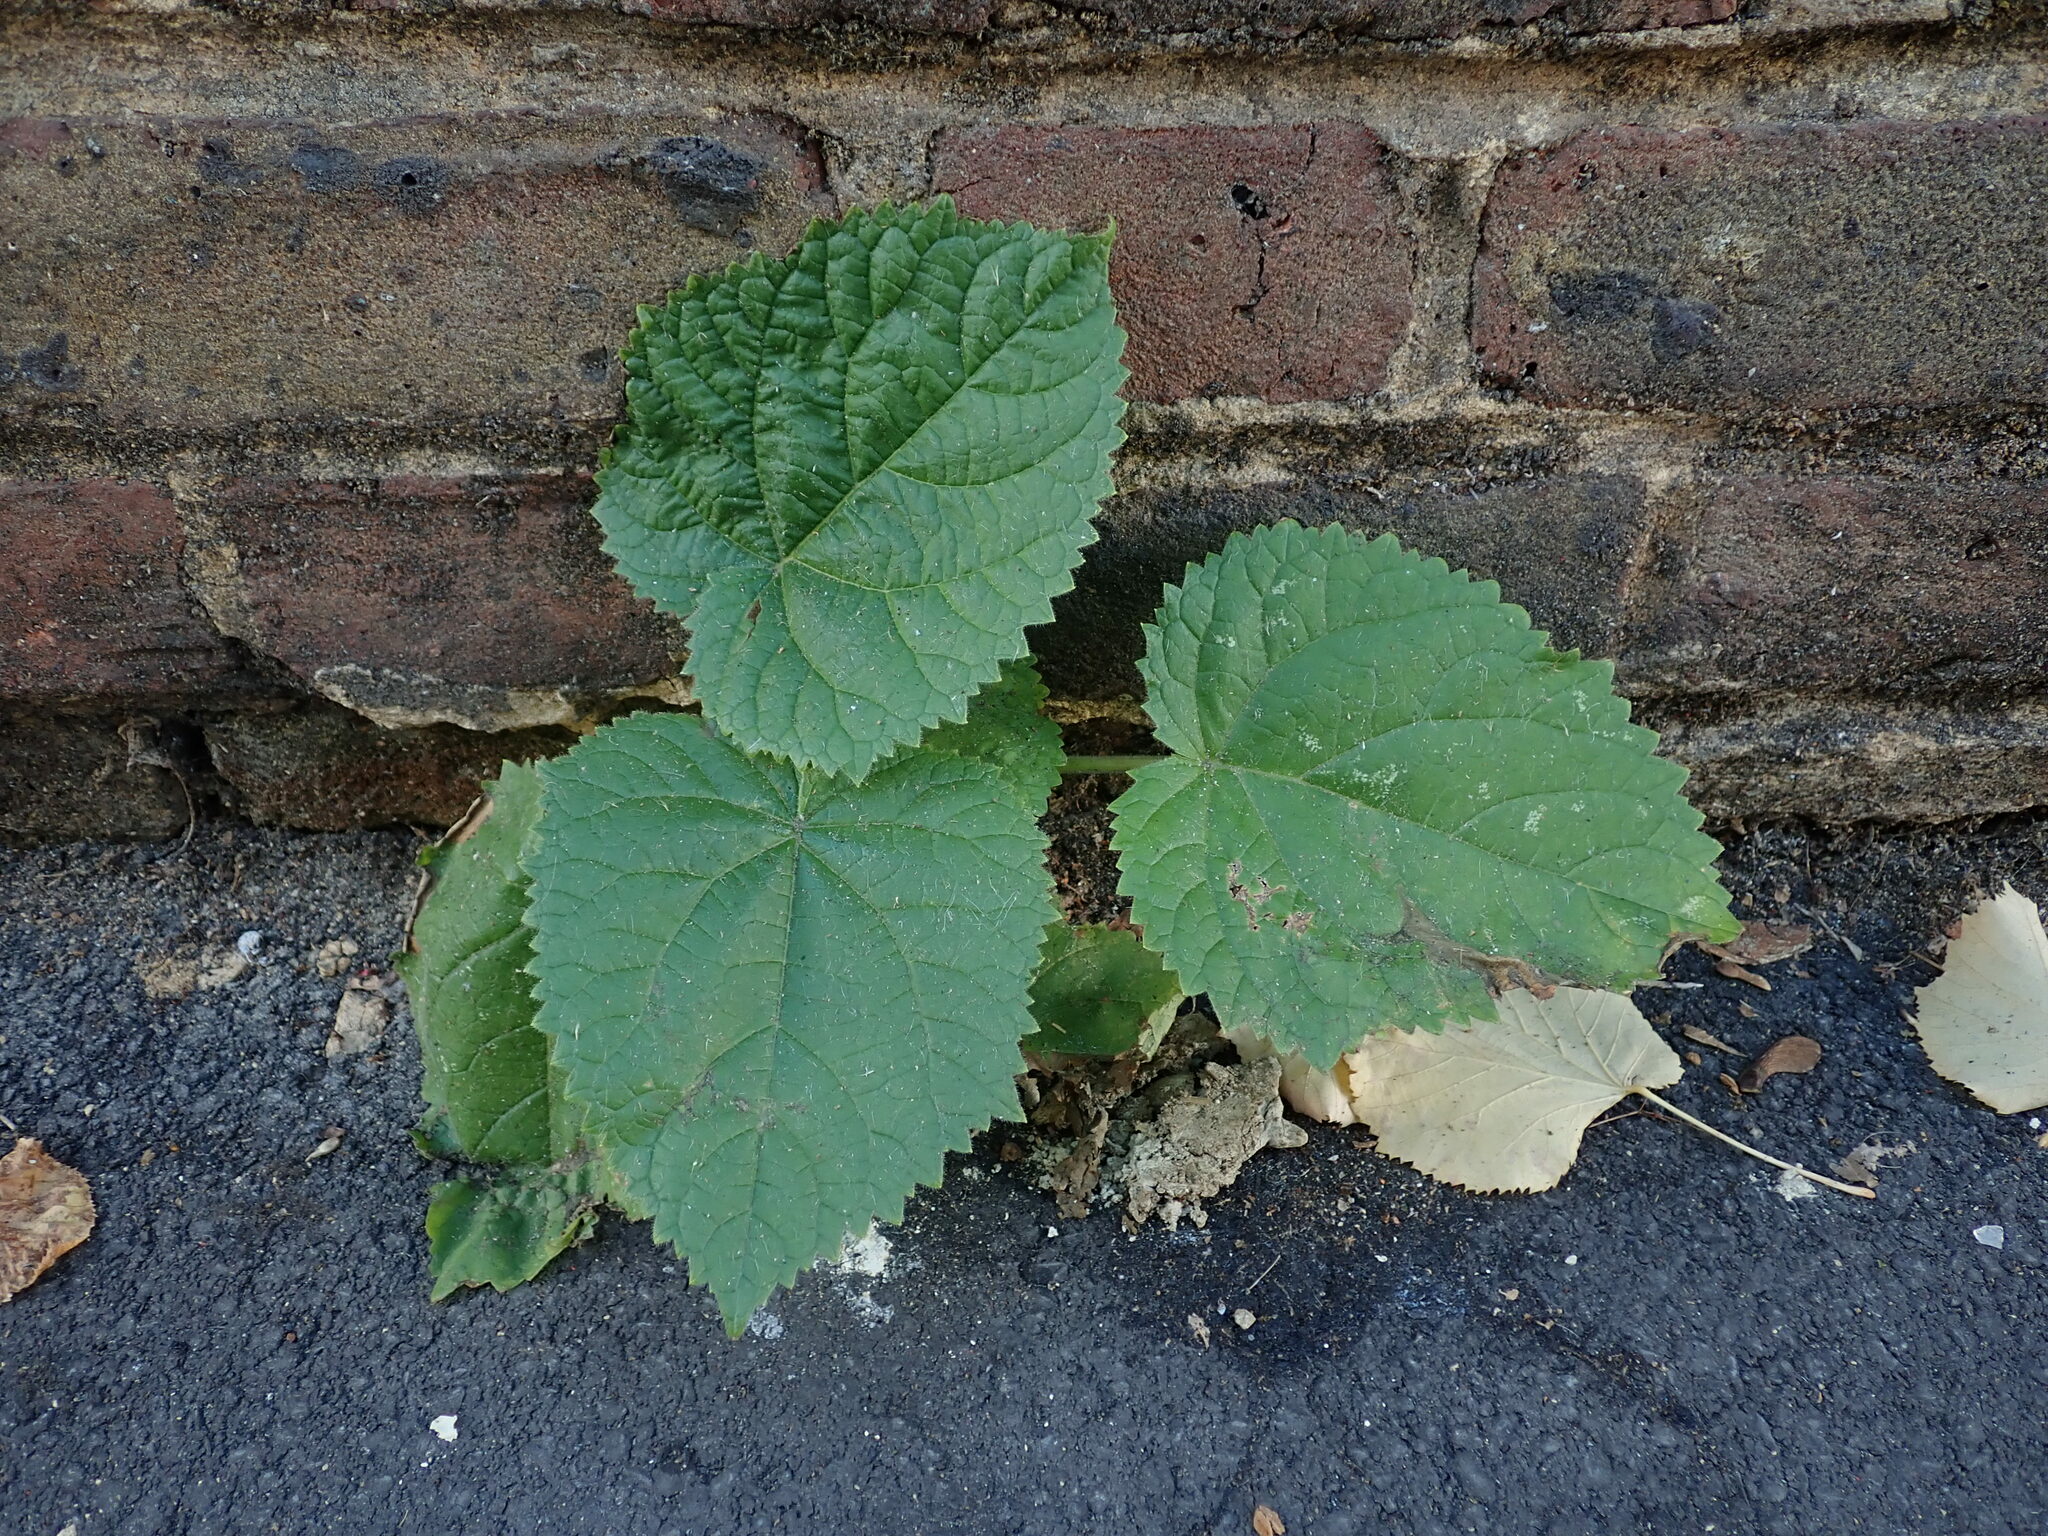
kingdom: Plantae
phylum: Tracheophyta
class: Magnoliopsida
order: Lamiales
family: Paulowniaceae
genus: Paulownia
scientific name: Paulownia tomentosa
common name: Foxglove-tree
